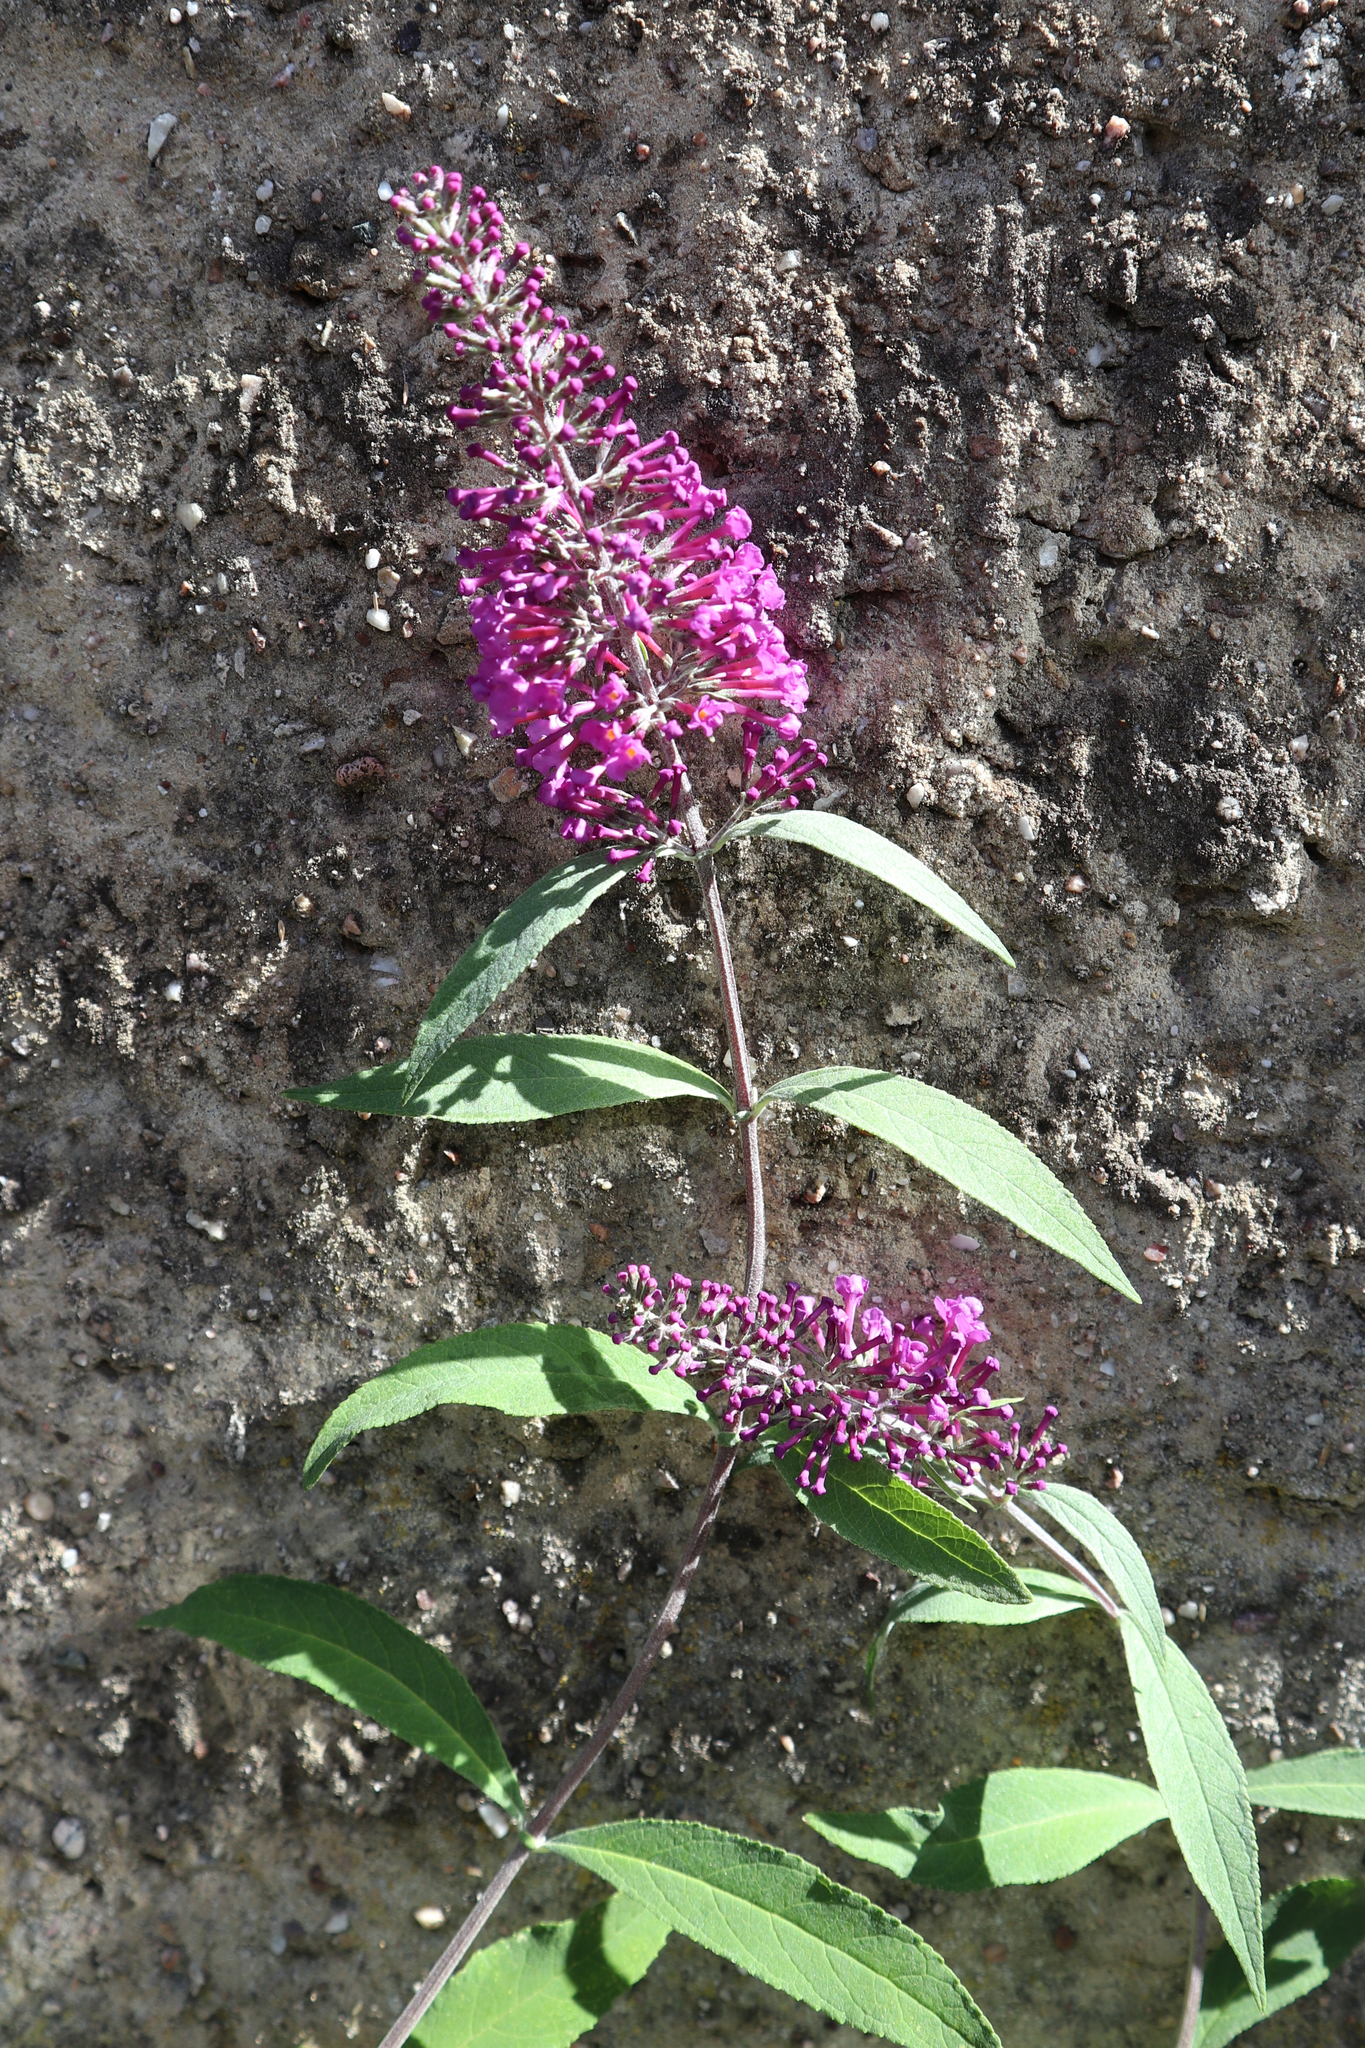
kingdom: Plantae
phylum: Tracheophyta
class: Magnoliopsida
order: Lamiales
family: Scrophulariaceae
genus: Buddleja
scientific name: Buddleja davidii
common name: Butterfly-bush
